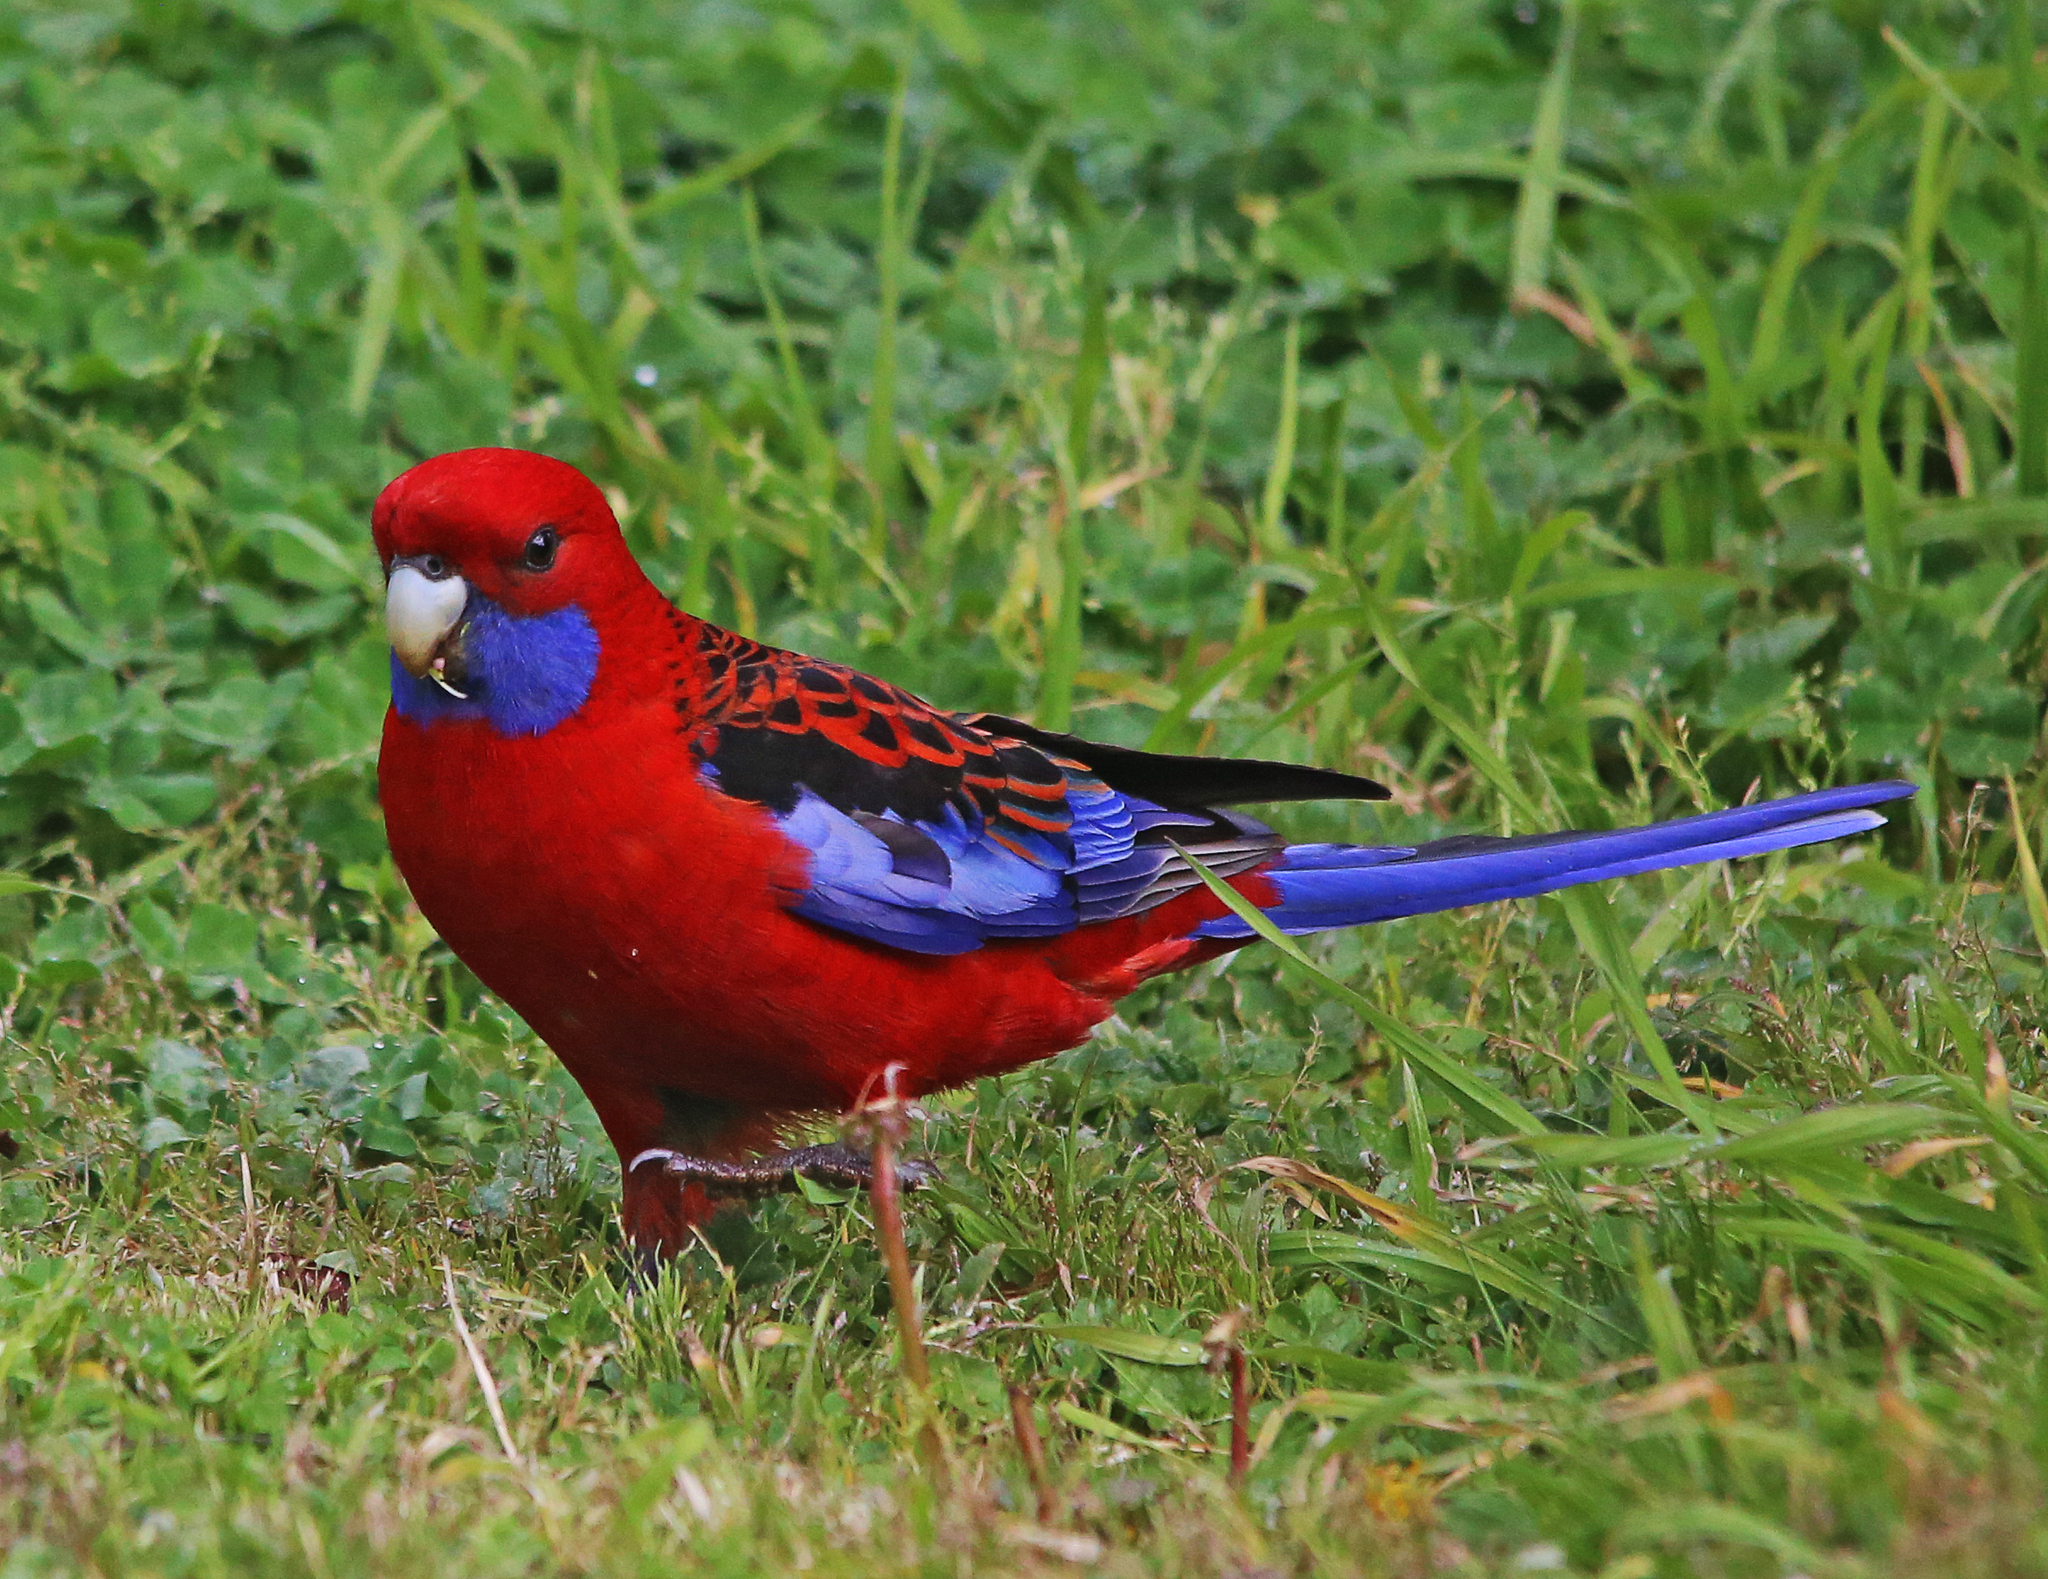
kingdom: Animalia
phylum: Chordata
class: Aves
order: Psittaciformes
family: Psittacidae
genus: Platycercus
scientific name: Platycercus elegans
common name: Crimson rosella
